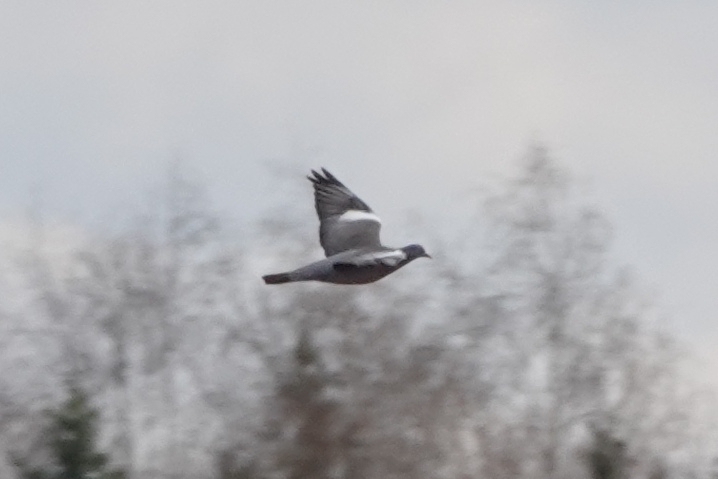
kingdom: Animalia
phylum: Chordata
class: Aves
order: Columbiformes
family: Columbidae
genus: Columba
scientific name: Columba palumbus
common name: Common wood pigeon
